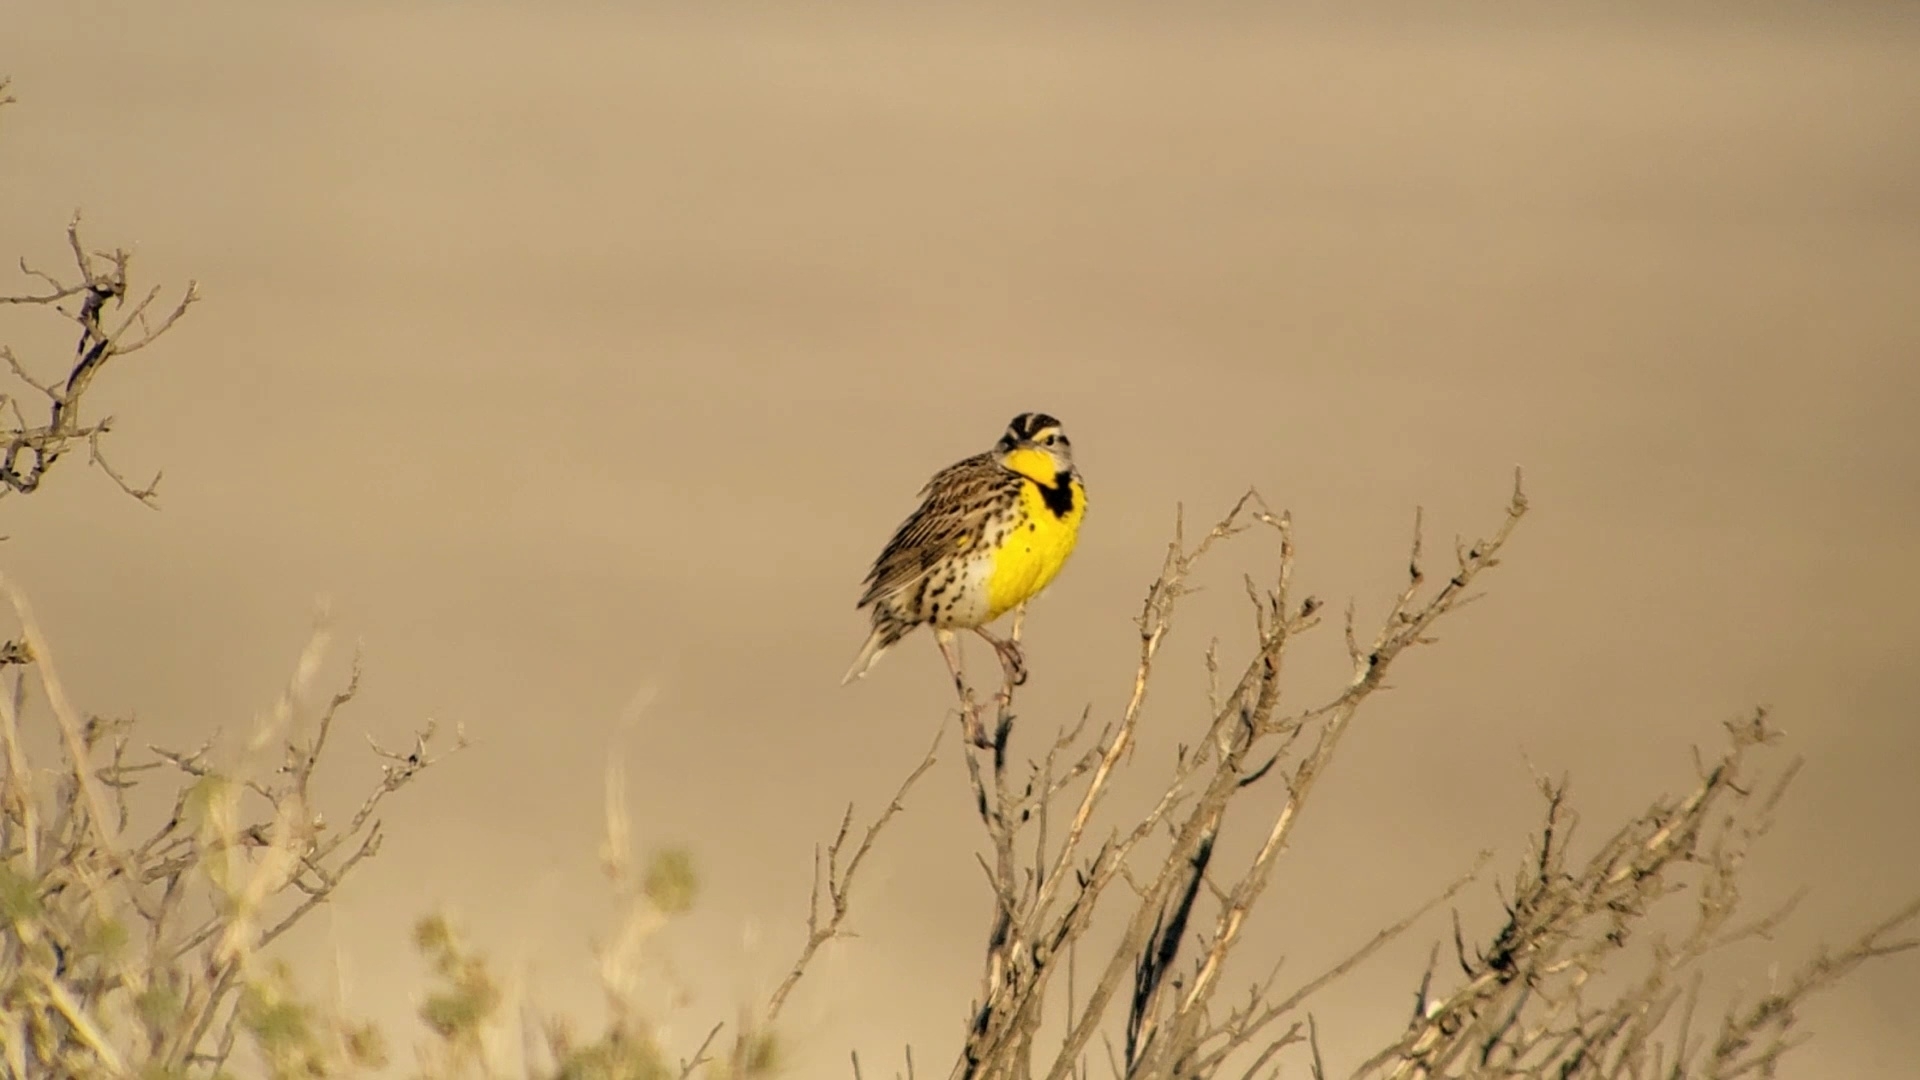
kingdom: Animalia
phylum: Chordata
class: Aves
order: Passeriformes
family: Icteridae
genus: Sturnella
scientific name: Sturnella neglecta
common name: Western meadowlark
